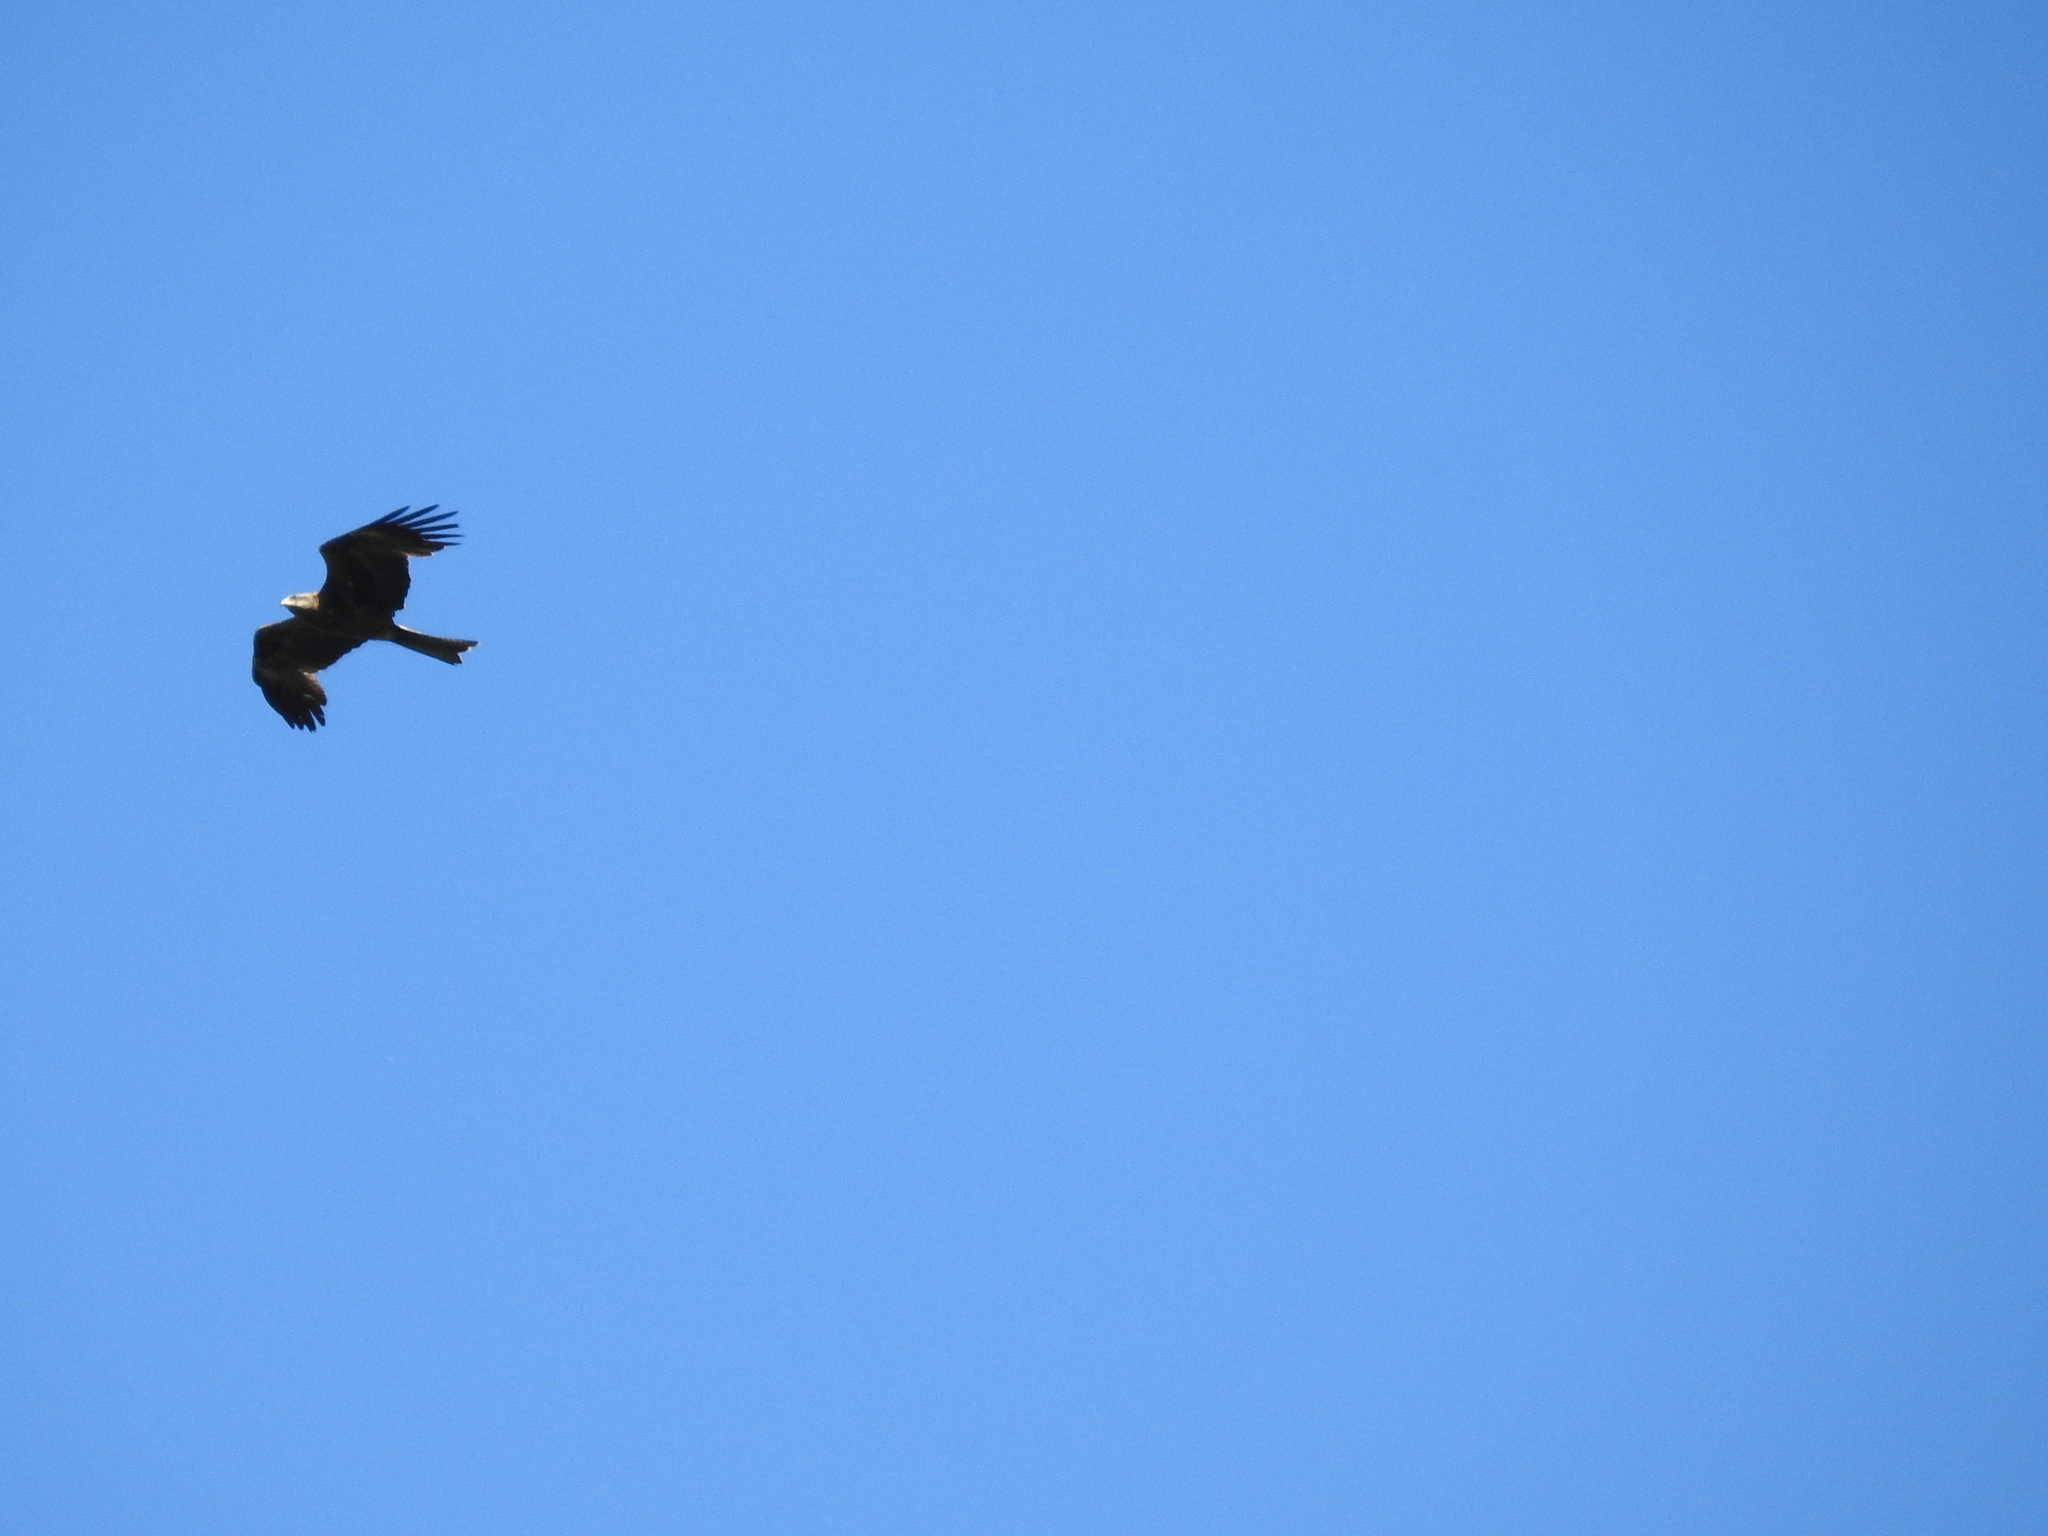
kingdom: Animalia
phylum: Chordata
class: Aves
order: Accipitriformes
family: Accipitridae
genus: Milvus
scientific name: Milvus migrans
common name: Black kite
